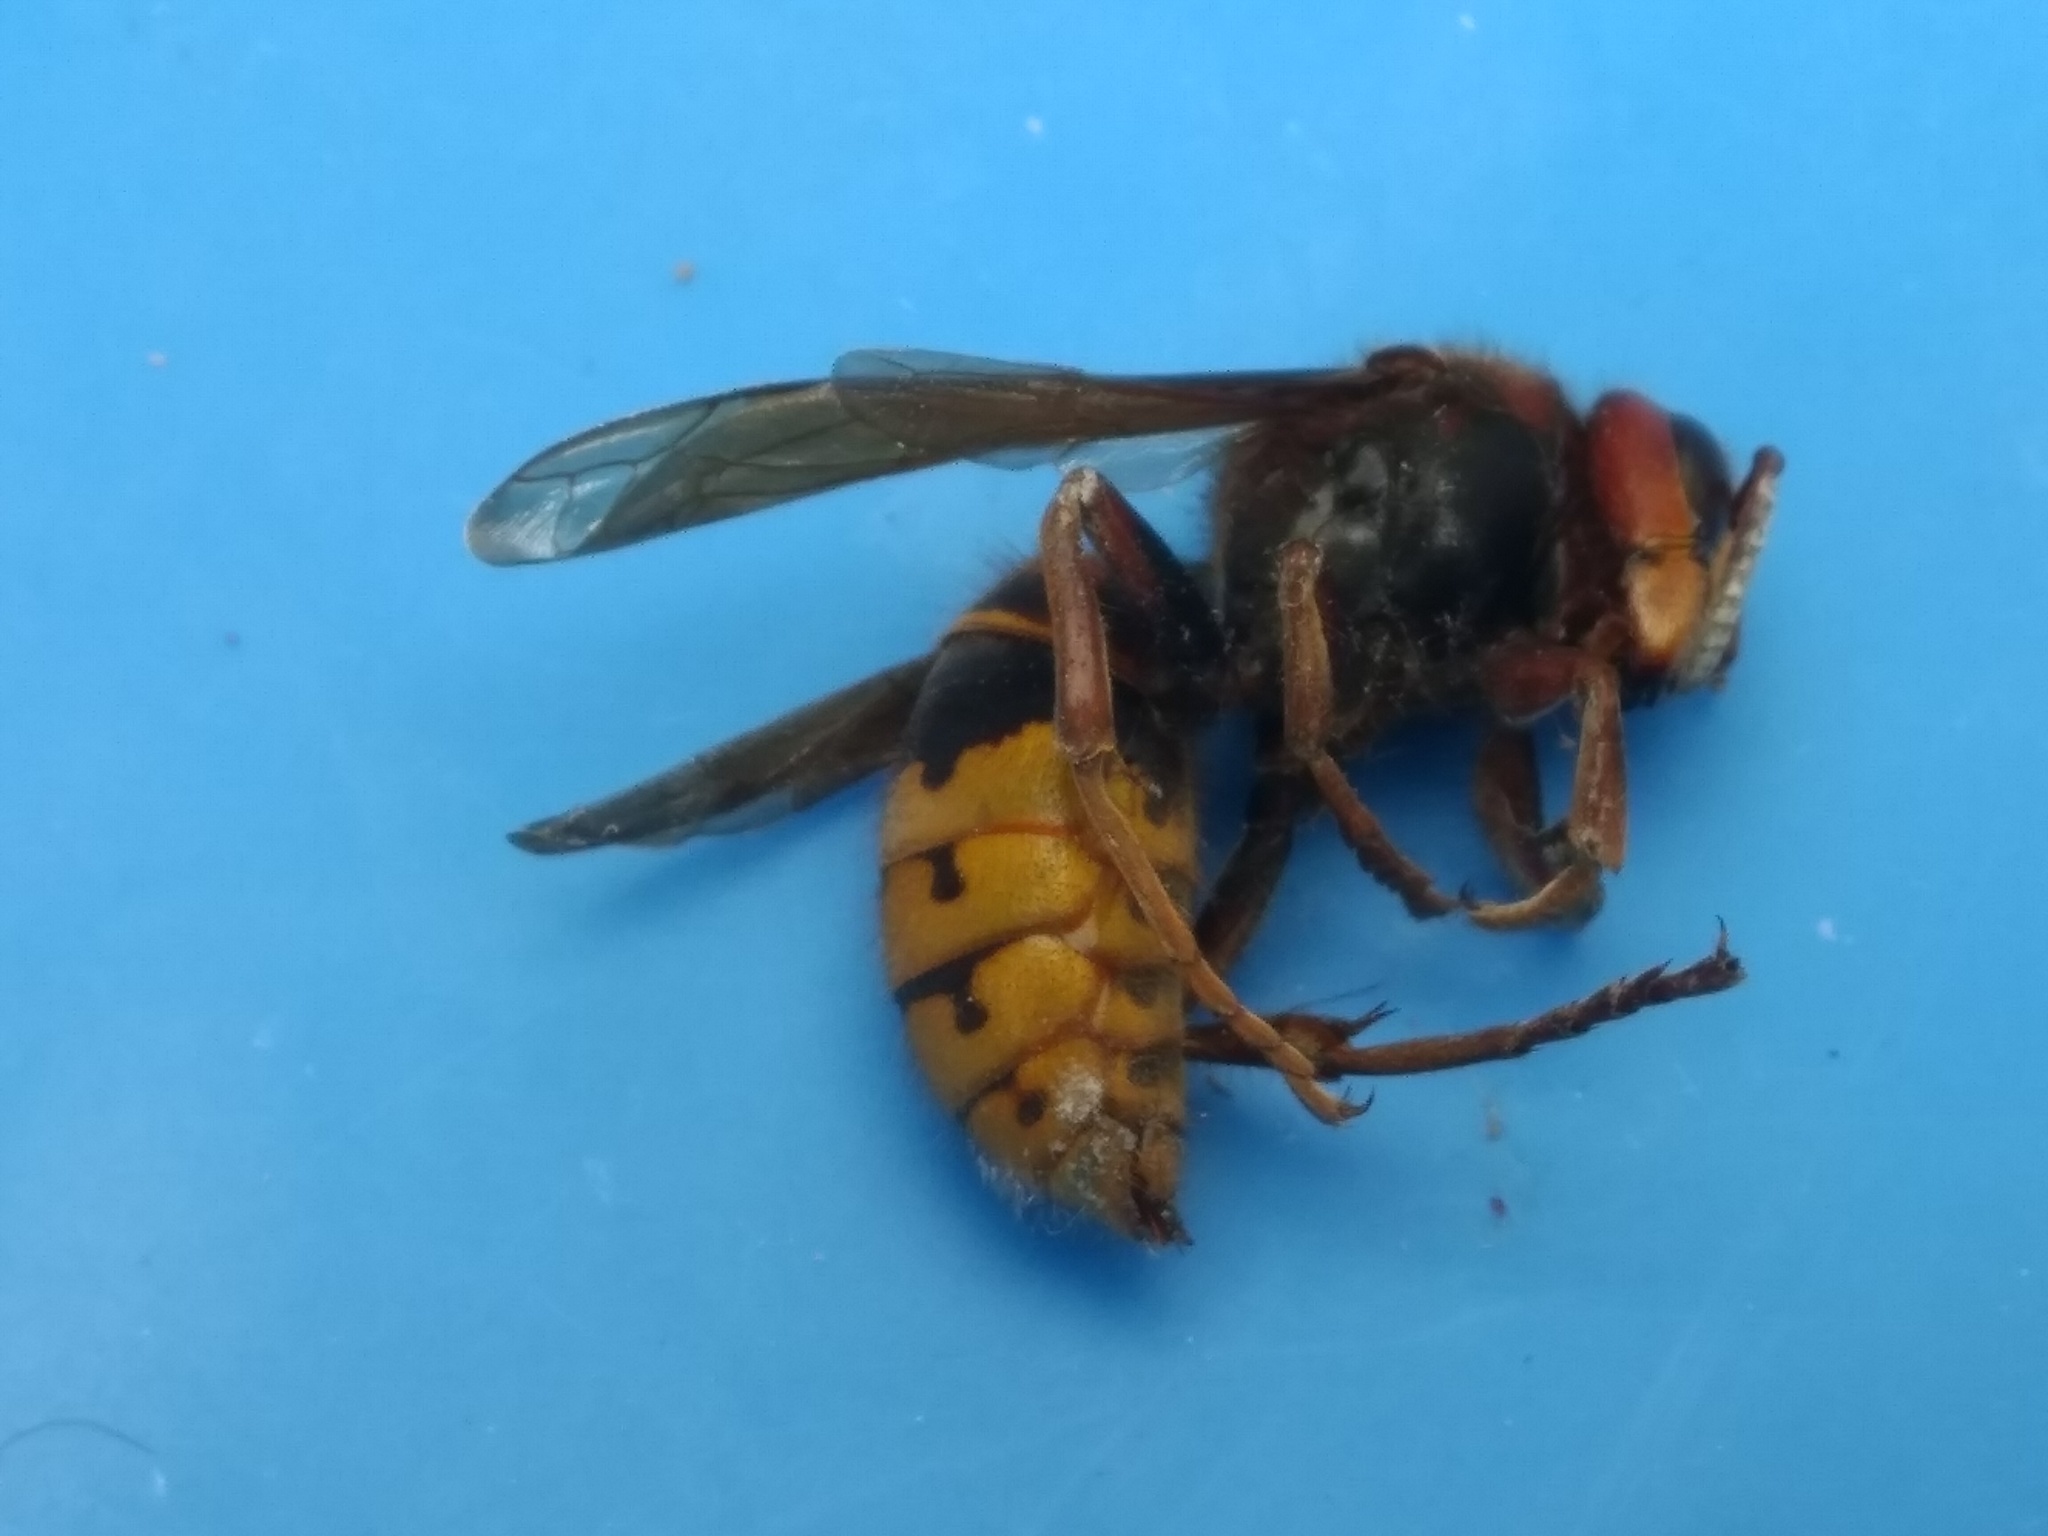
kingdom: Animalia
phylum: Arthropoda
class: Insecta
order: Hymenoptera
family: Vespidae
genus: Vespa
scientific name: Vespa crabro
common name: Hornet
